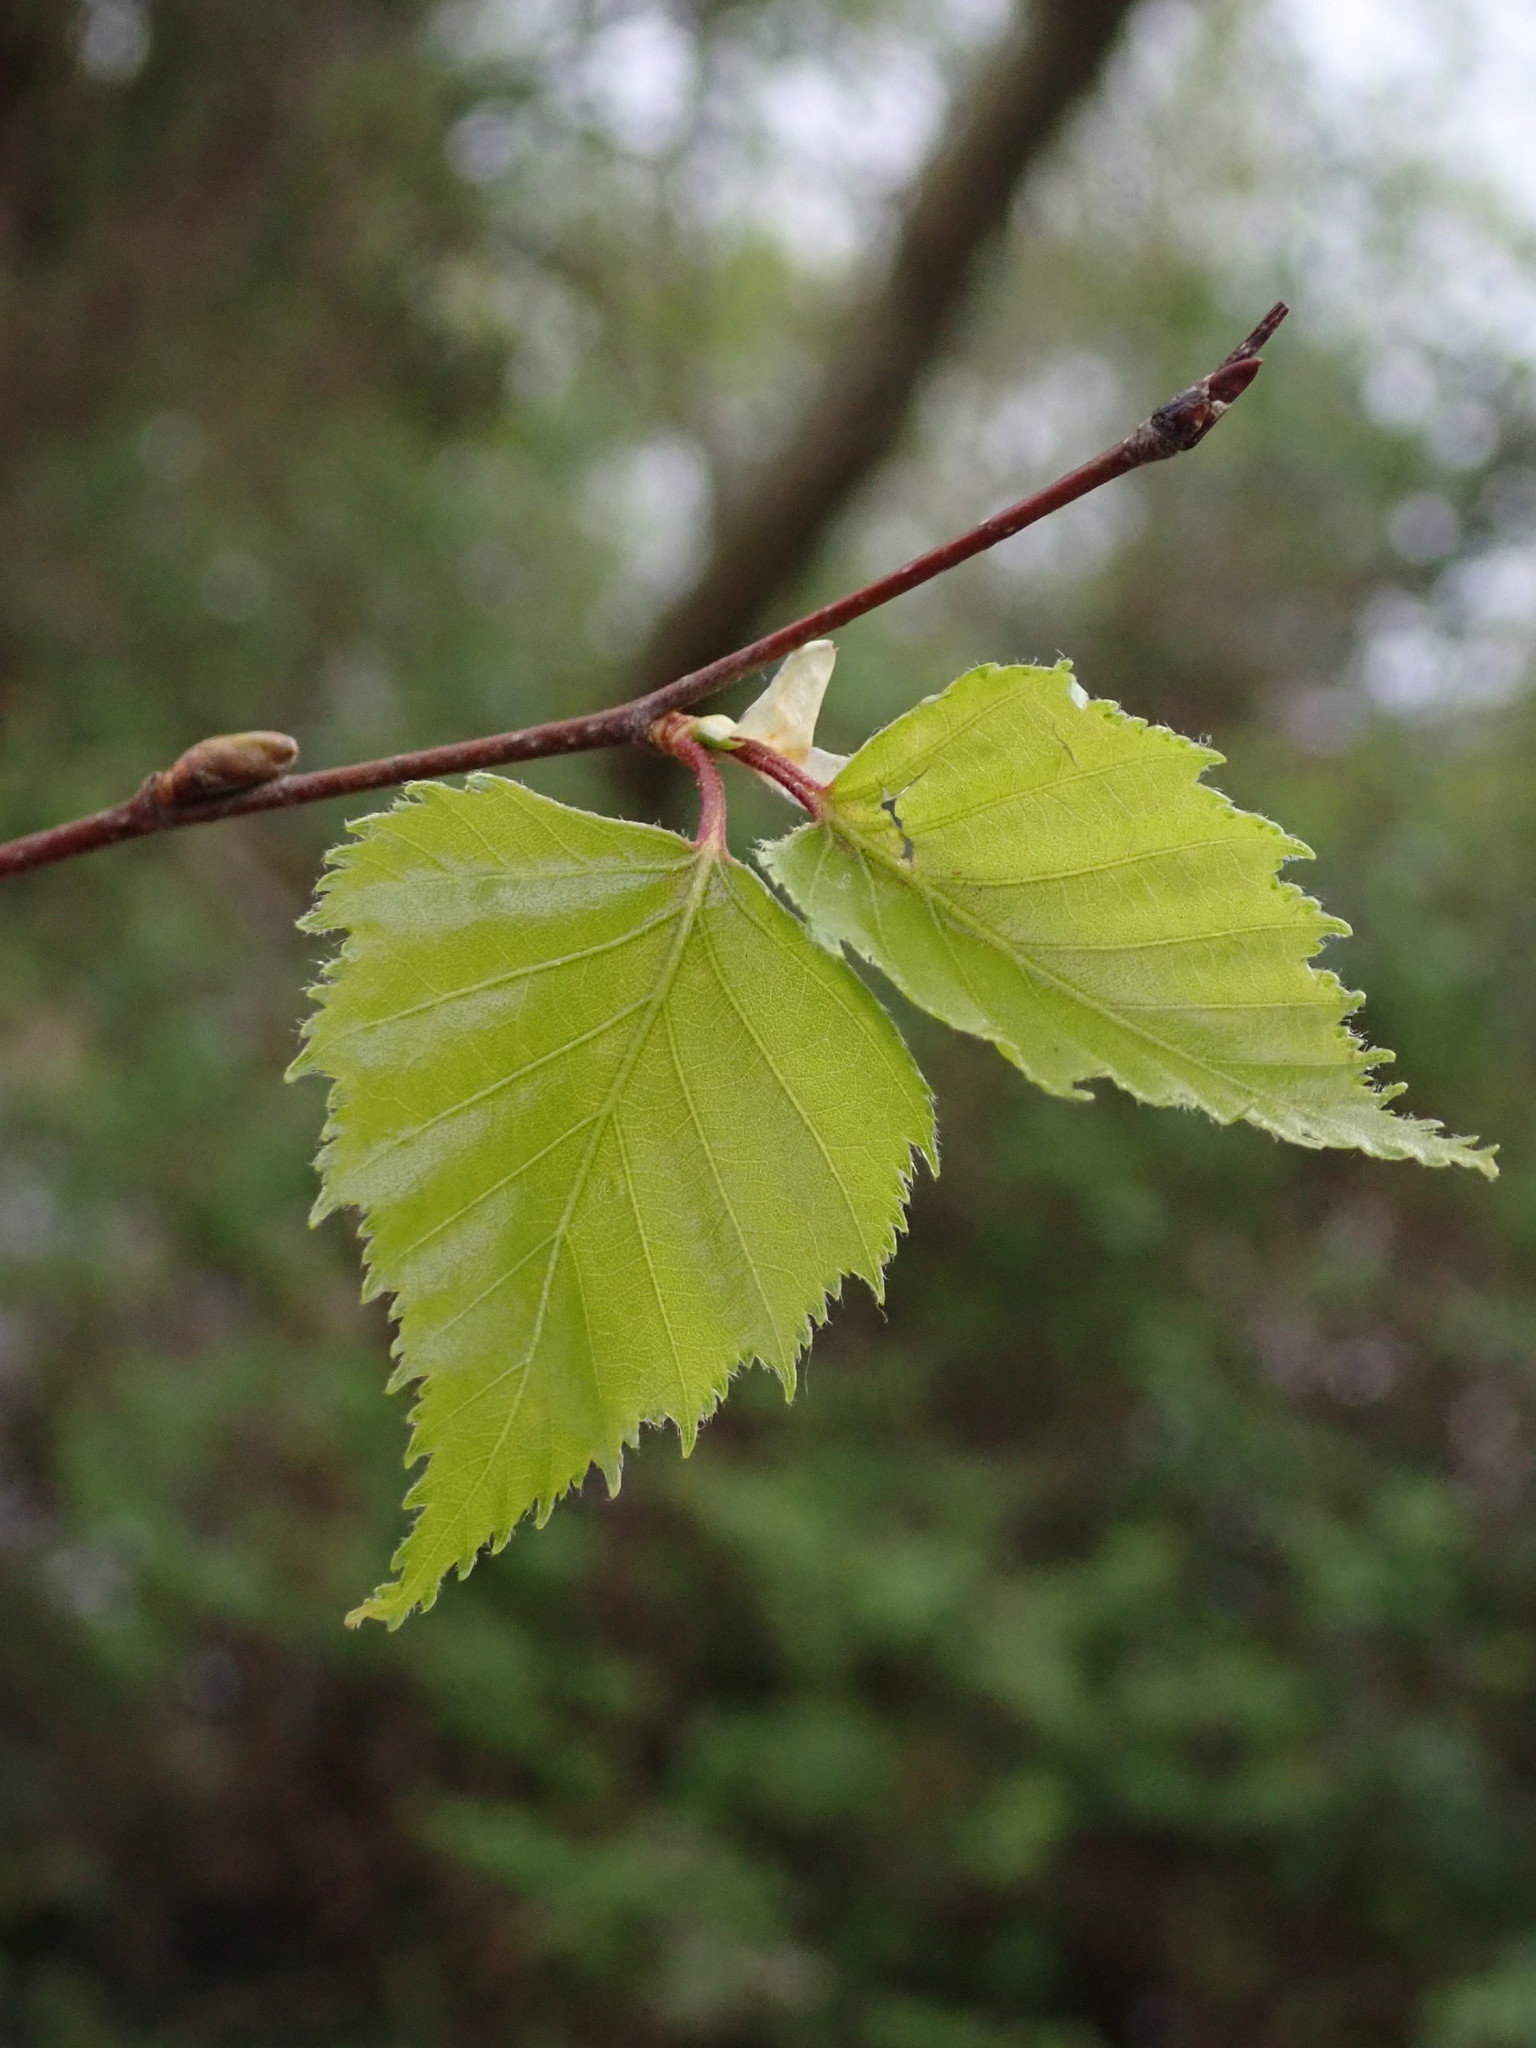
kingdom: Plantae
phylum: Tracheophyta
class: Magnoliopsida
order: Fagales
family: Betulaceae
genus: Betula
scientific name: Betula pendula
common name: Silver birch
